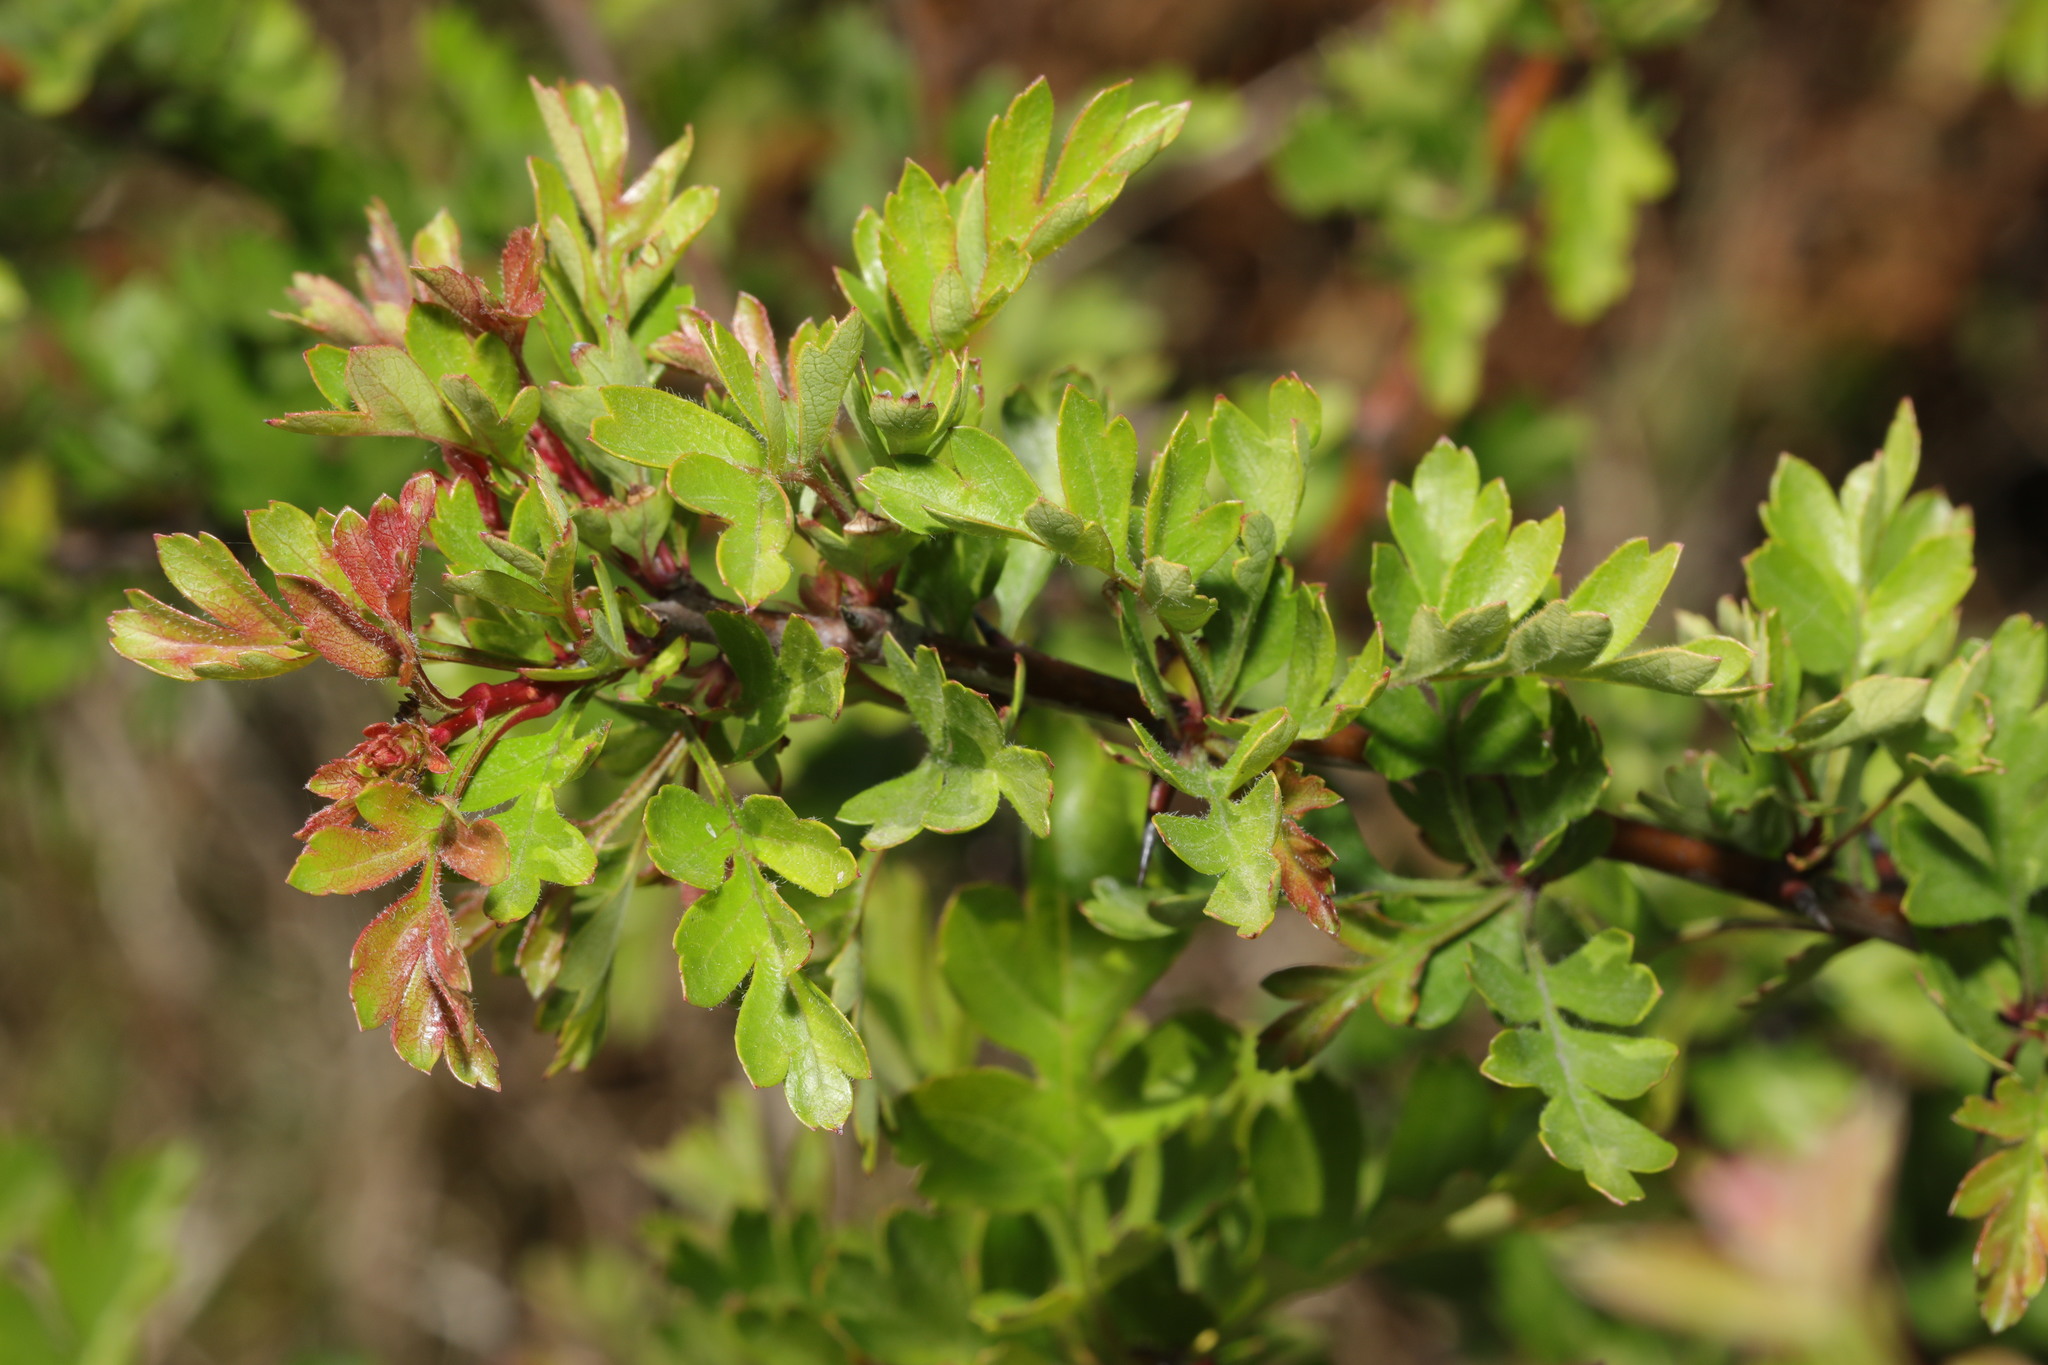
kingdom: Plantae
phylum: Tracheophyta
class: Magnoliopsida
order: Rosales
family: Rosaceae
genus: Crataegus
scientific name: Crataegus monogyna
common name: Hawthorn
